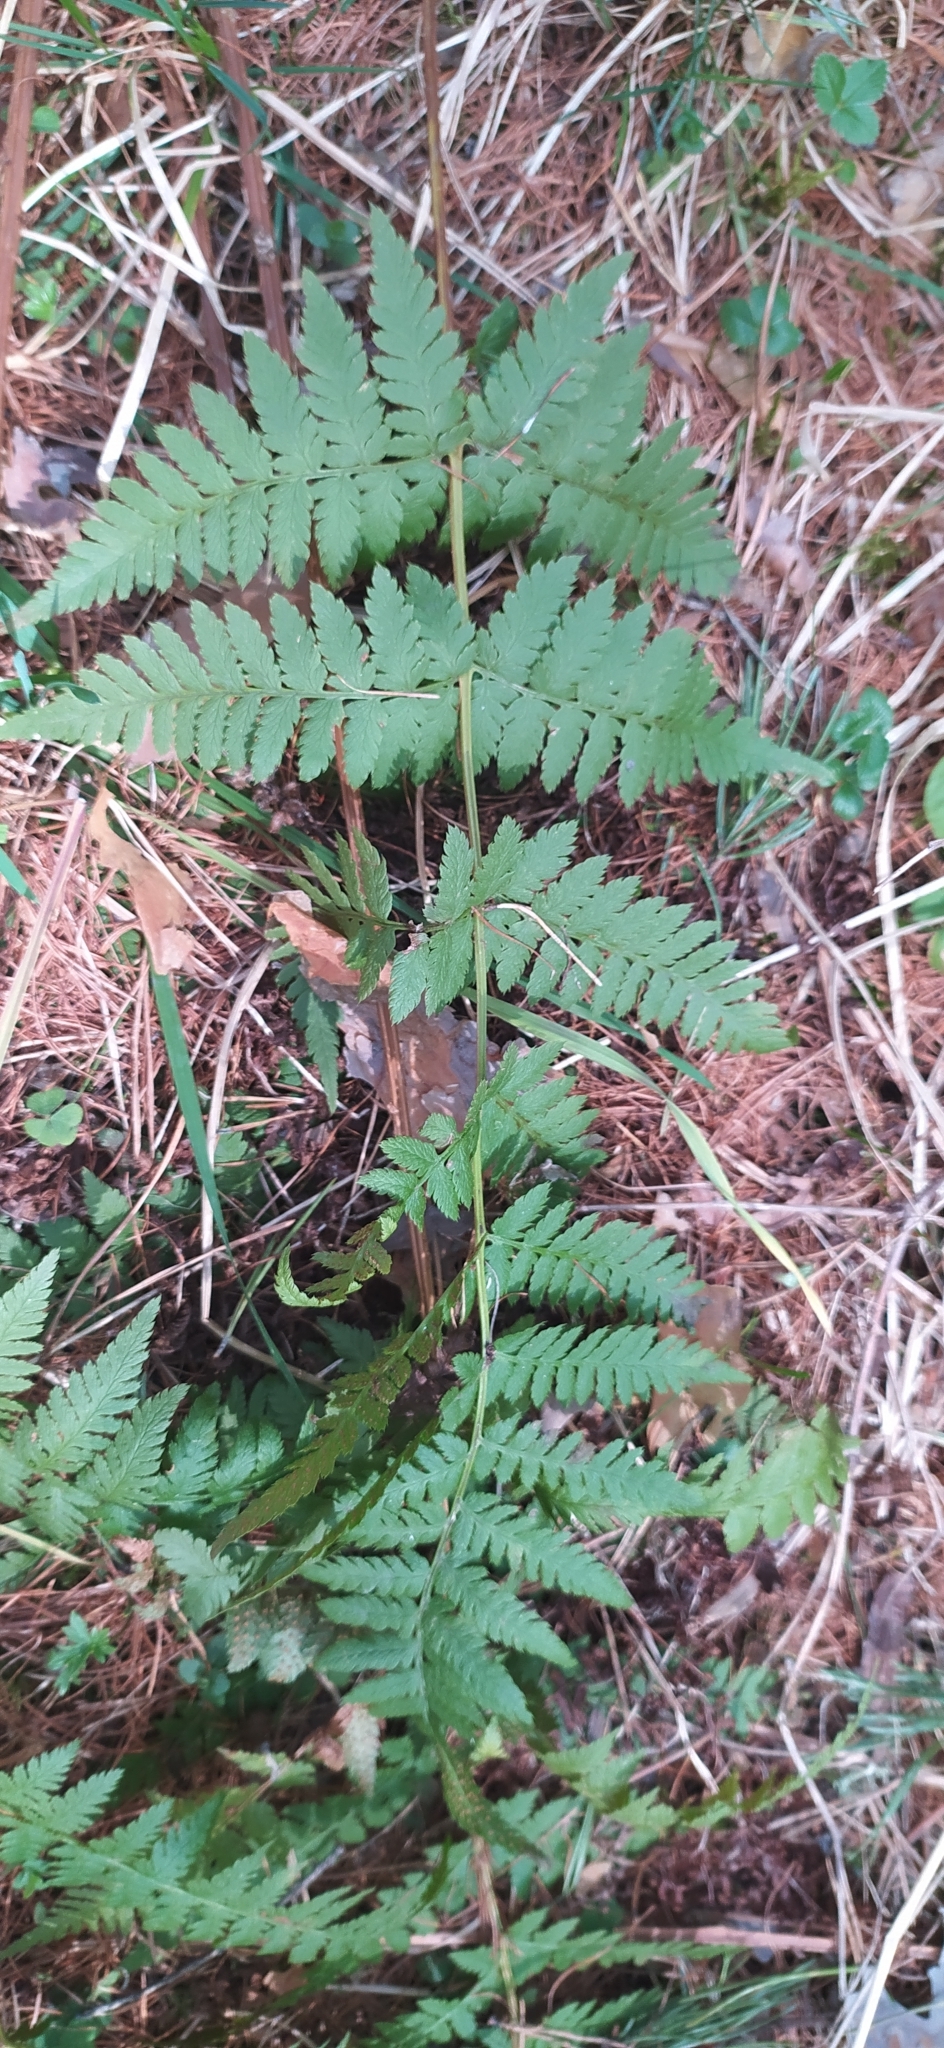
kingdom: Plantae
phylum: Tracheophyta
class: Polypodiopsida
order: Polypodiales
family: Dryopteridaceae
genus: Dryopteris
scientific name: Dryopteris carthusiana
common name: Narrow buckler-fern
